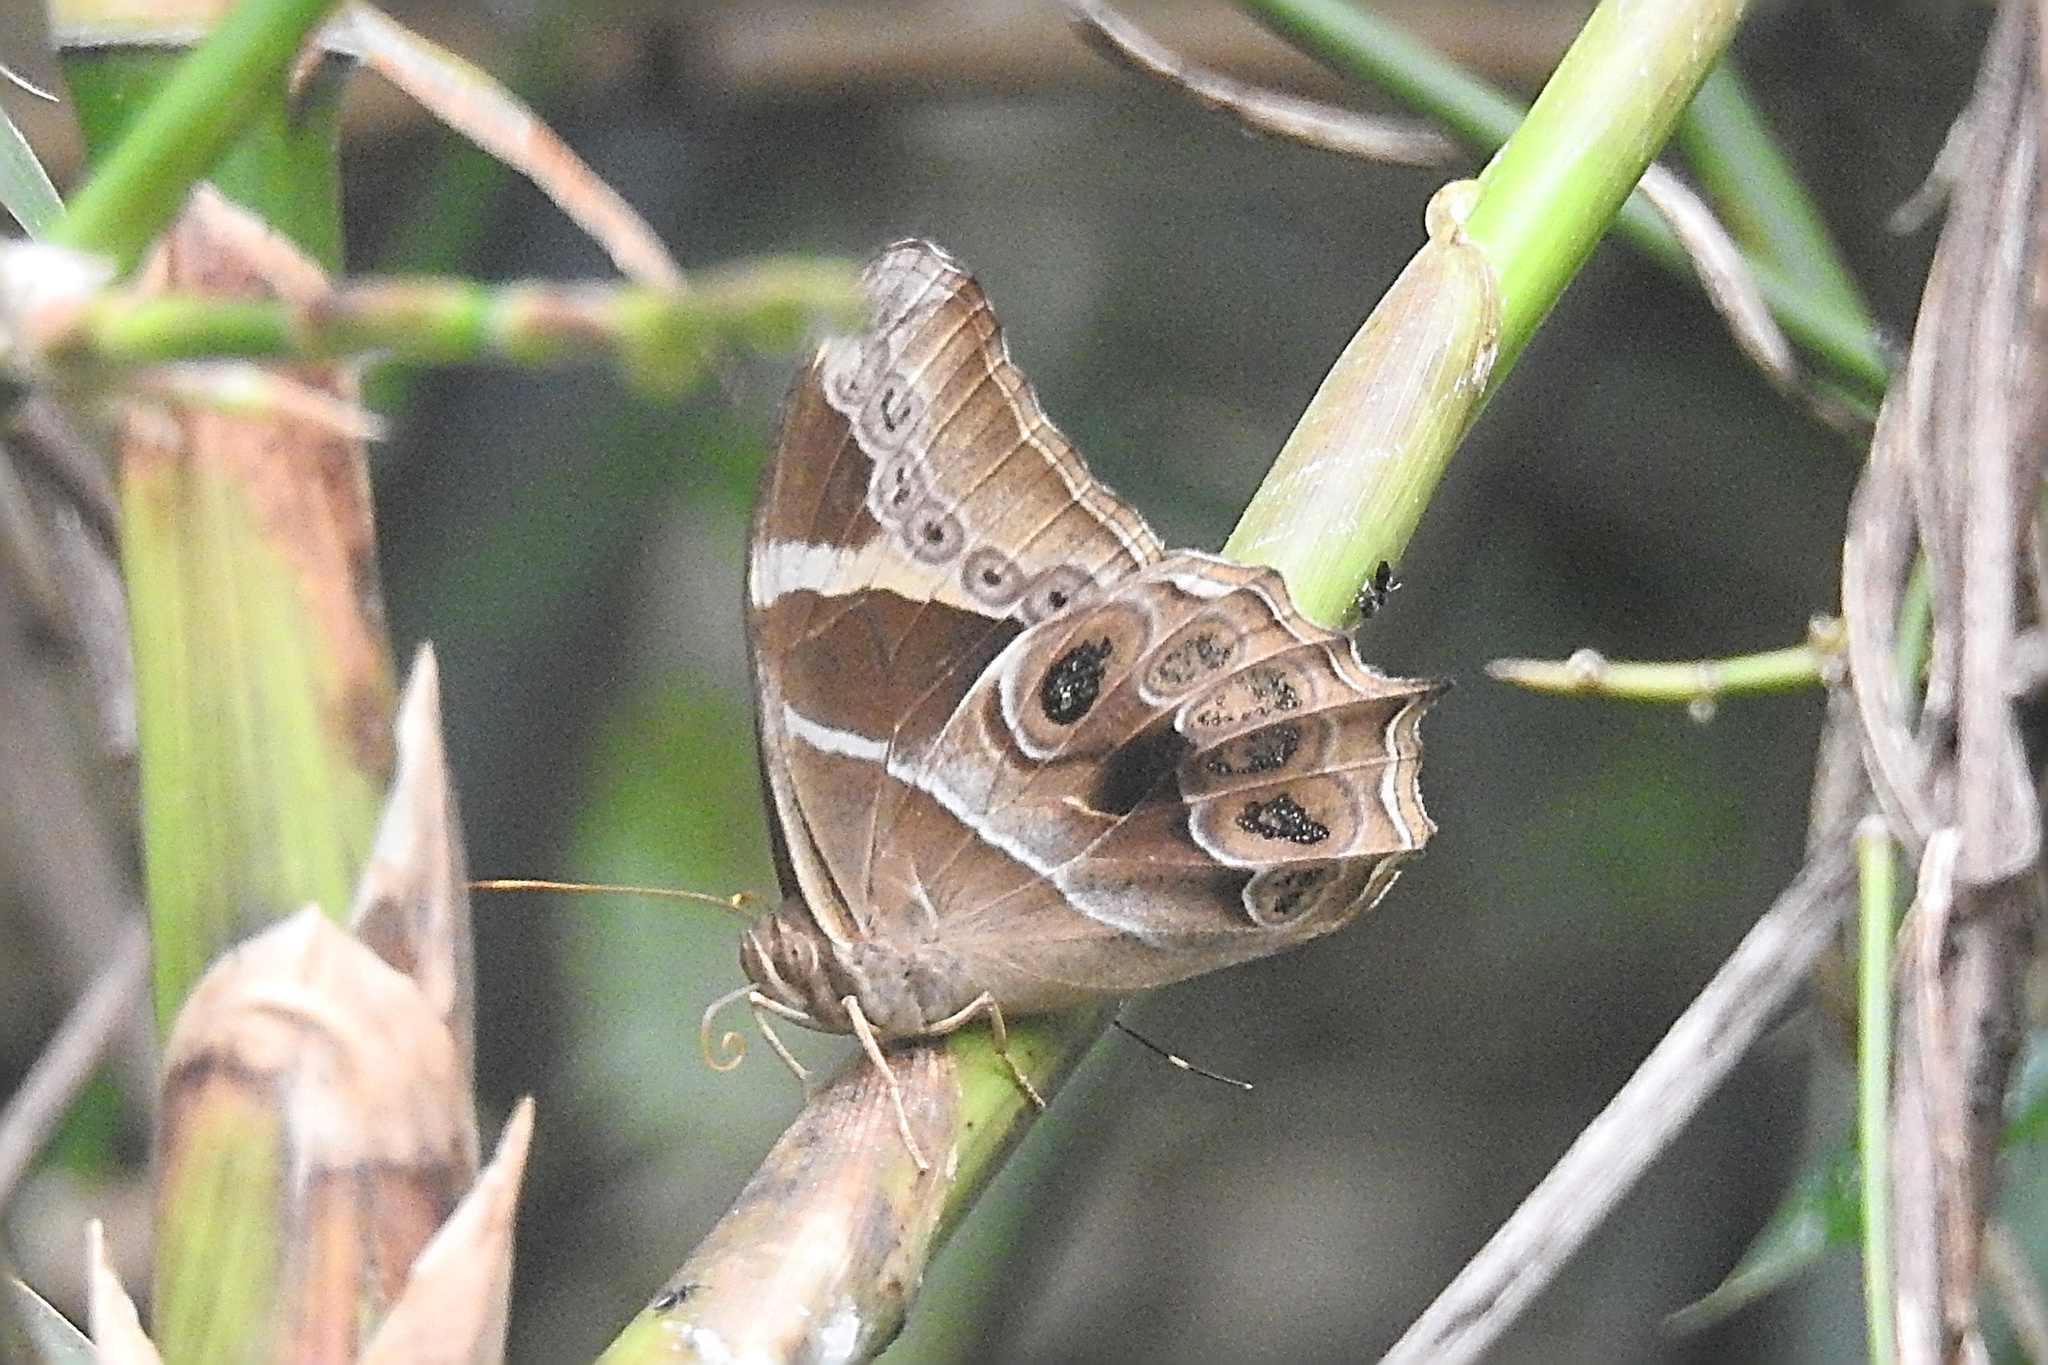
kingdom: Animalia
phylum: Arthropoda
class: Insecta
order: Lepidoptera
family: Nymphalidae
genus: Lethe
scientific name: Lethe europa
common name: Bamboo treebrown
